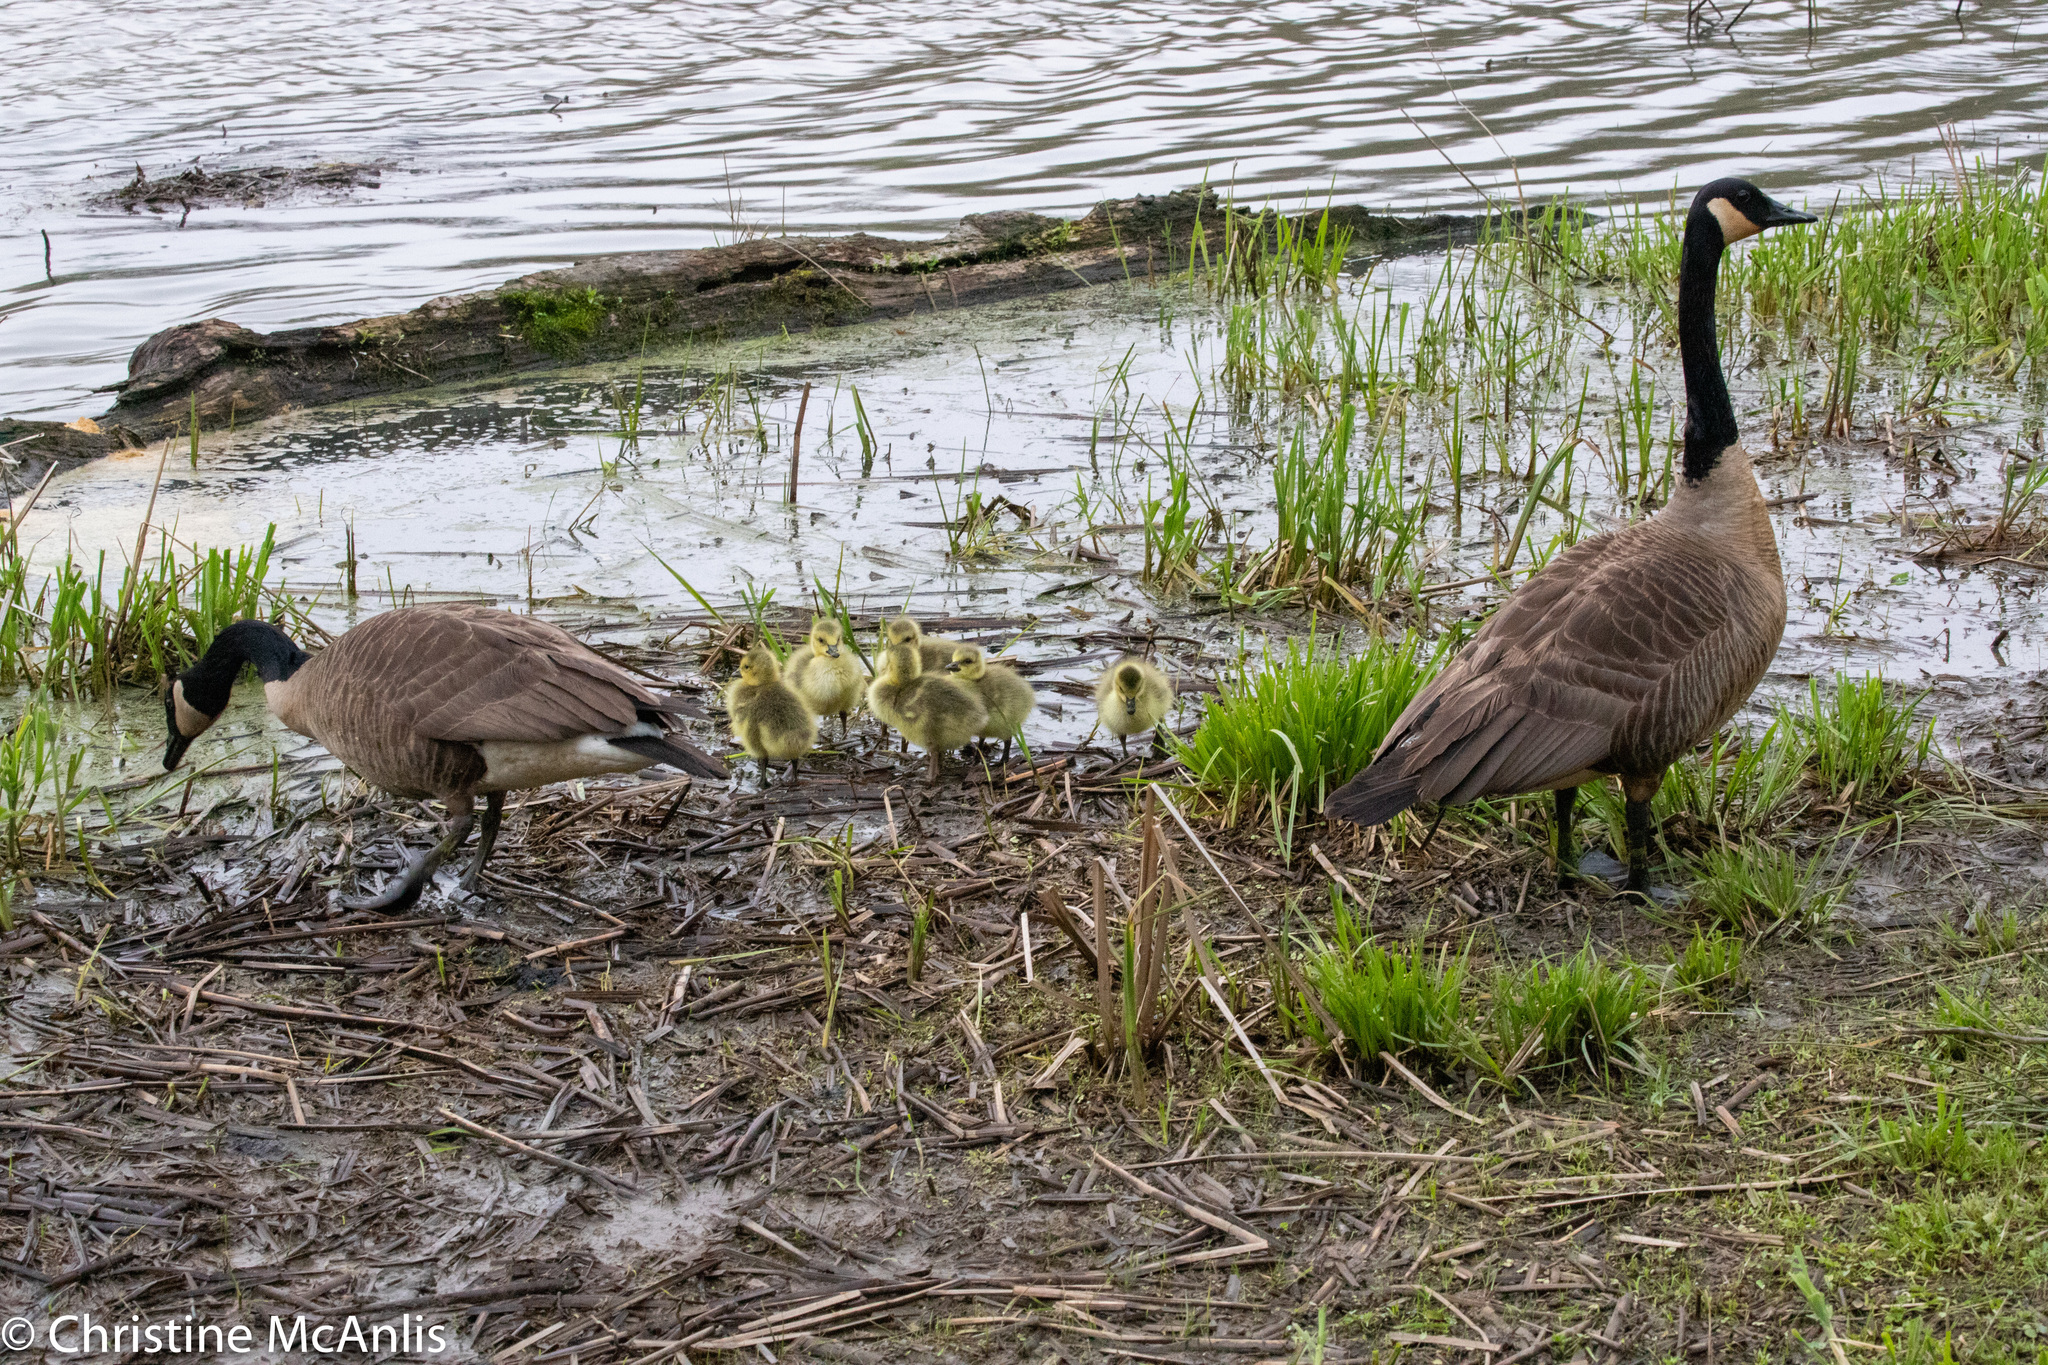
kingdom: Animalia
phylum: Chordata
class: Aves
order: Anseriformes
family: Anatidae
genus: Branta
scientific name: Branta canadensis
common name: Canada goose
